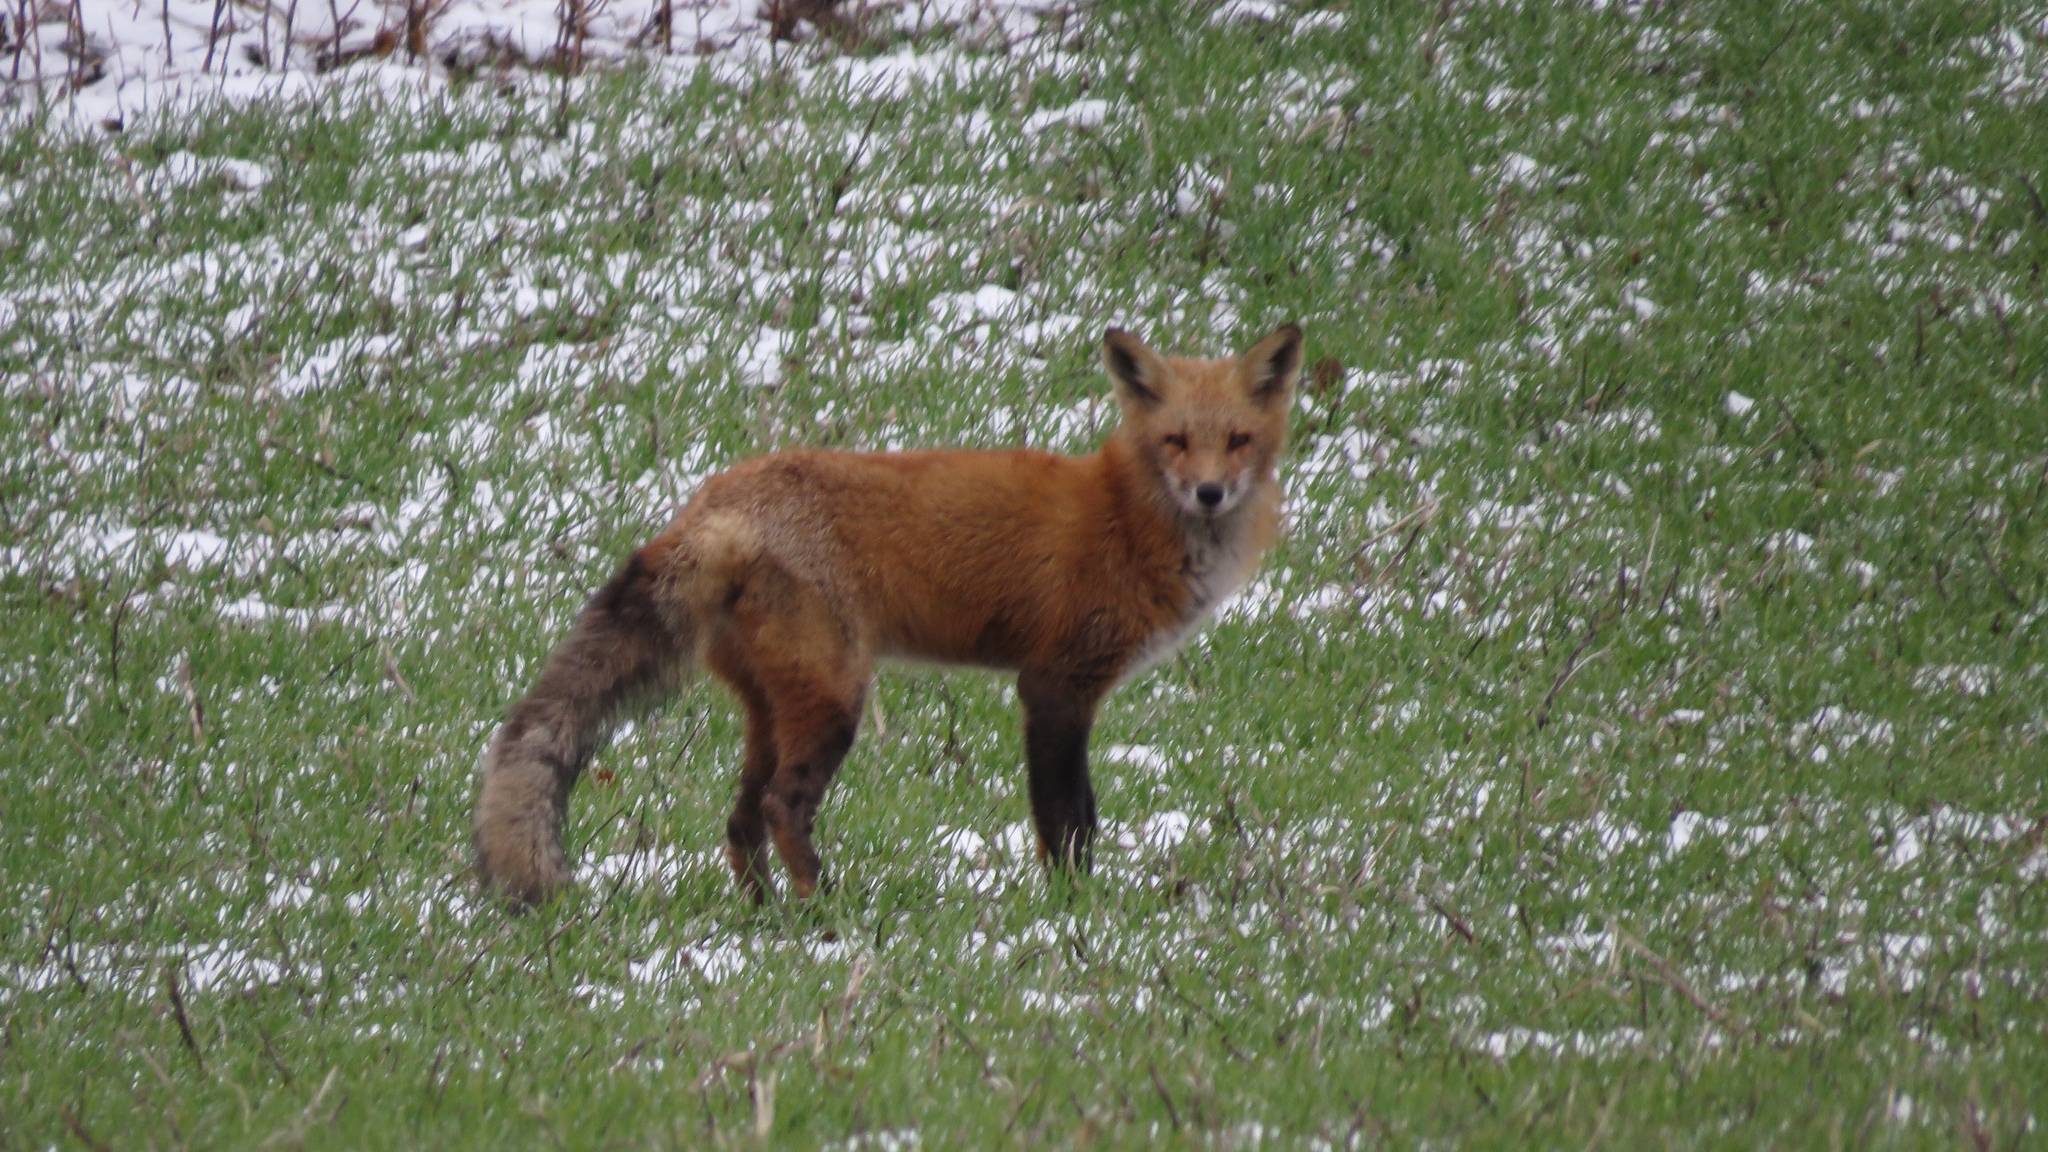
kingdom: Animalia
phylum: Chordata
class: Mammalia
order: Carnivora
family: Canidae
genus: Vulpes
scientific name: Vulpes vulpes
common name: Red fox
